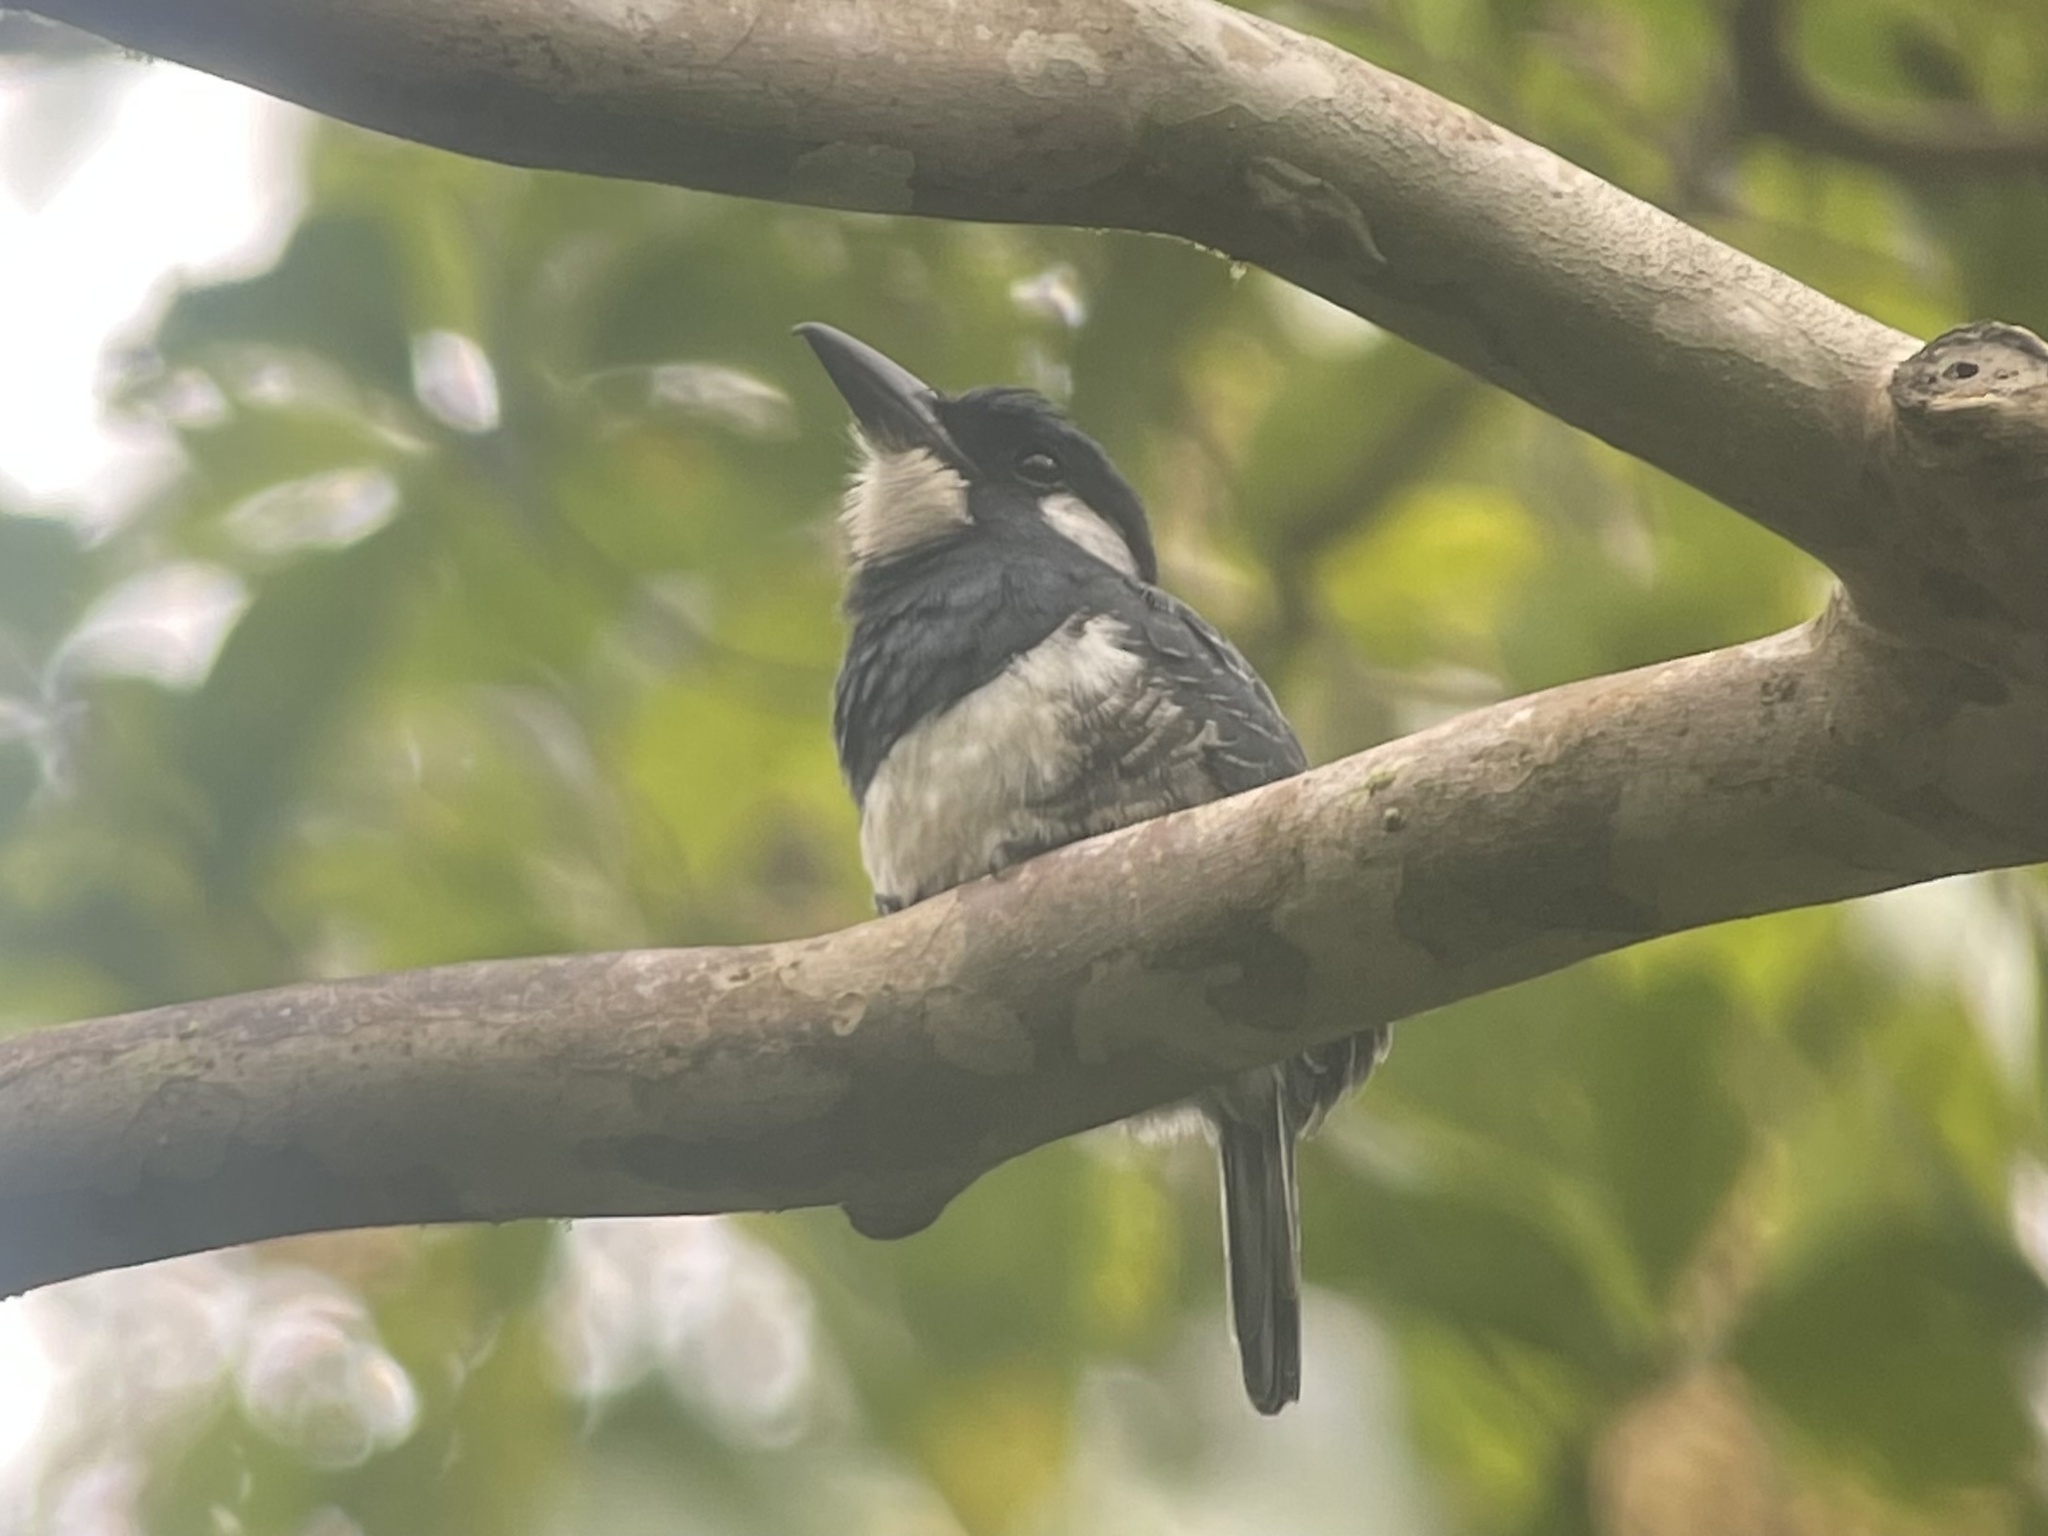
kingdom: Animalia
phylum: Chordata
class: Aves
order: Piciformes
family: Bucconidae
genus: Notharchus
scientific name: Notharchus pectoralis
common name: Black-breasted puffbird
